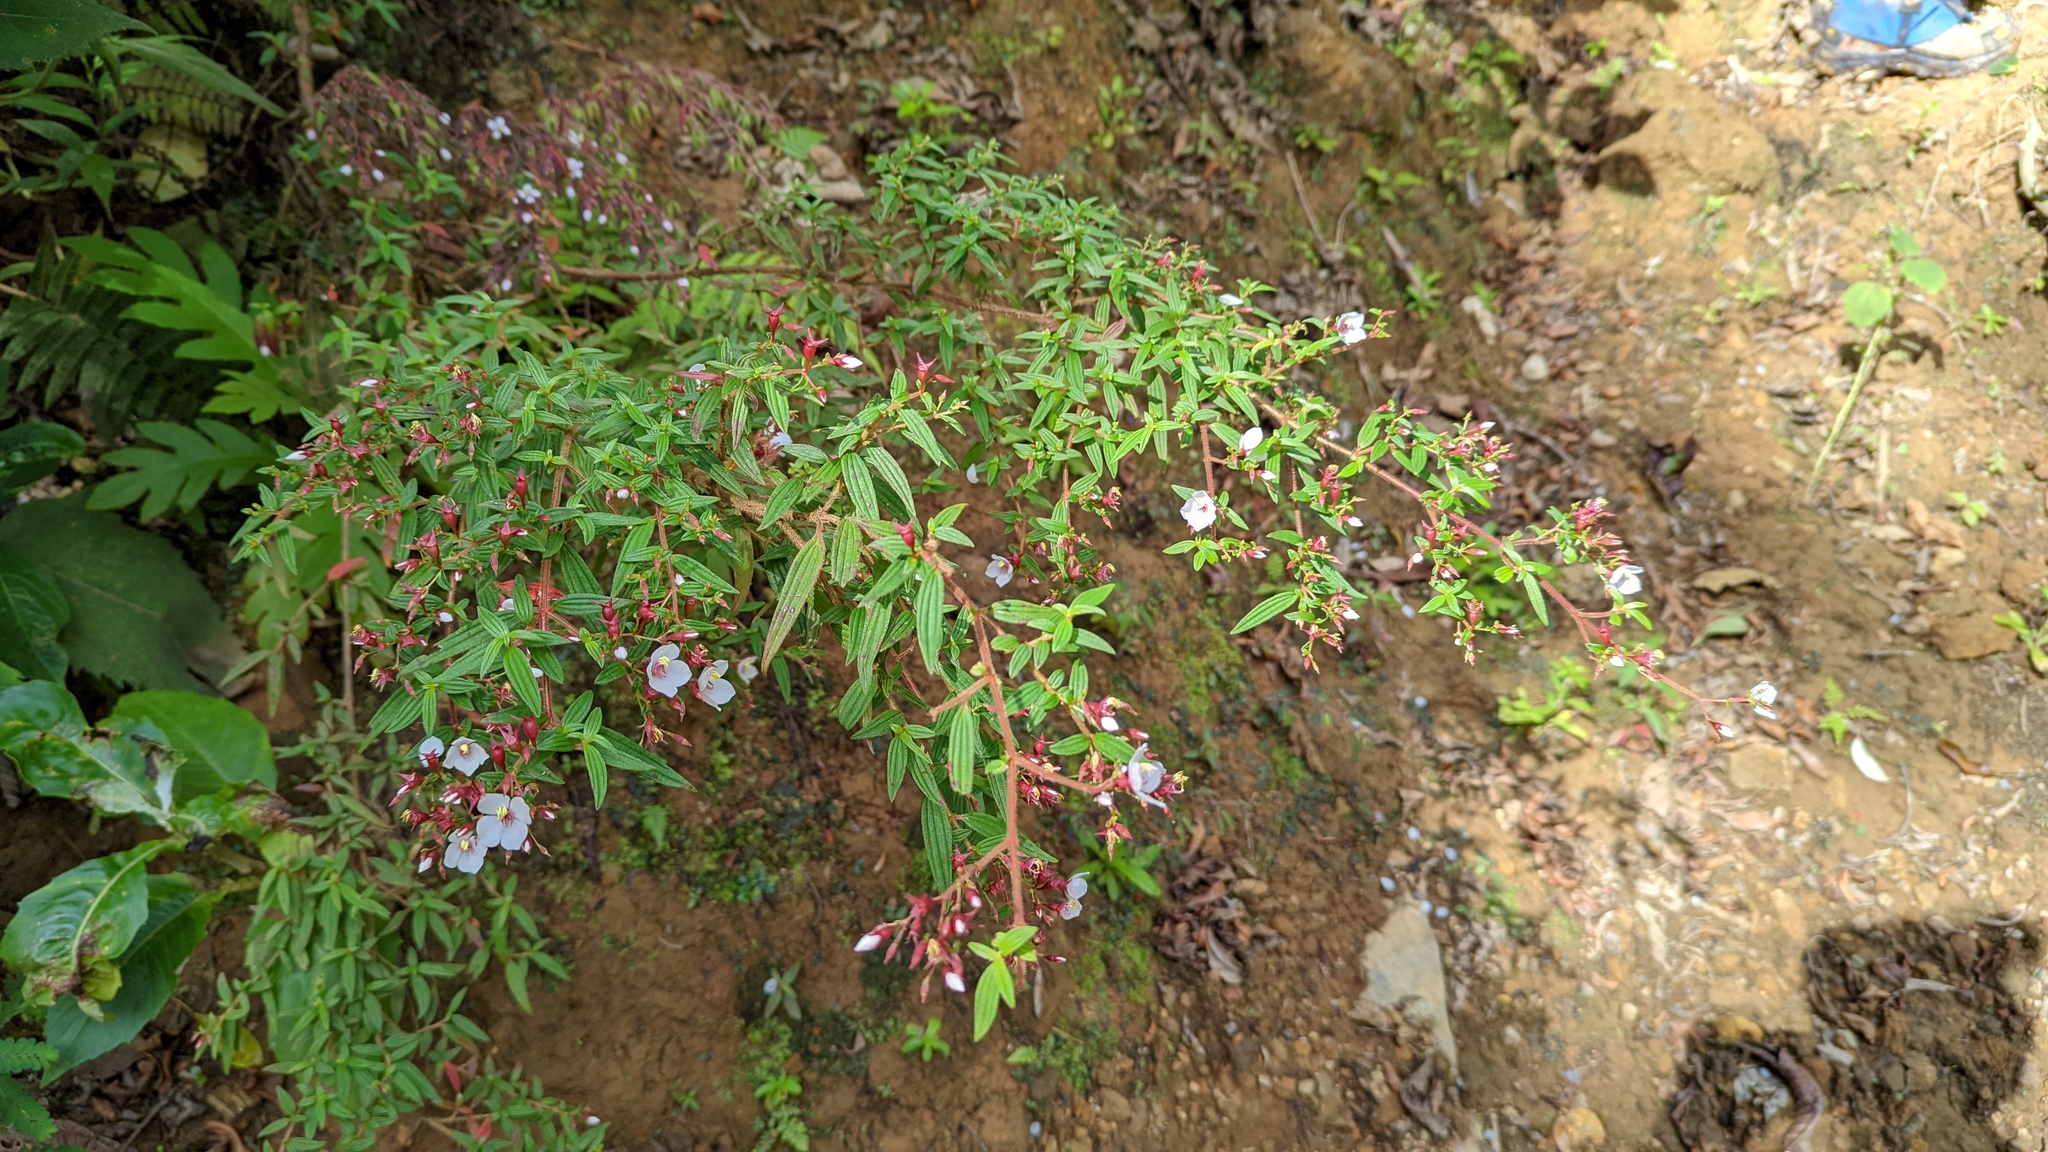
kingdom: Plantae
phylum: Tracheophyta
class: Magnoliopsida
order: Myrtales
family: Melastomataceae
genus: Monochaetum
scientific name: Monochaetum floribundum
